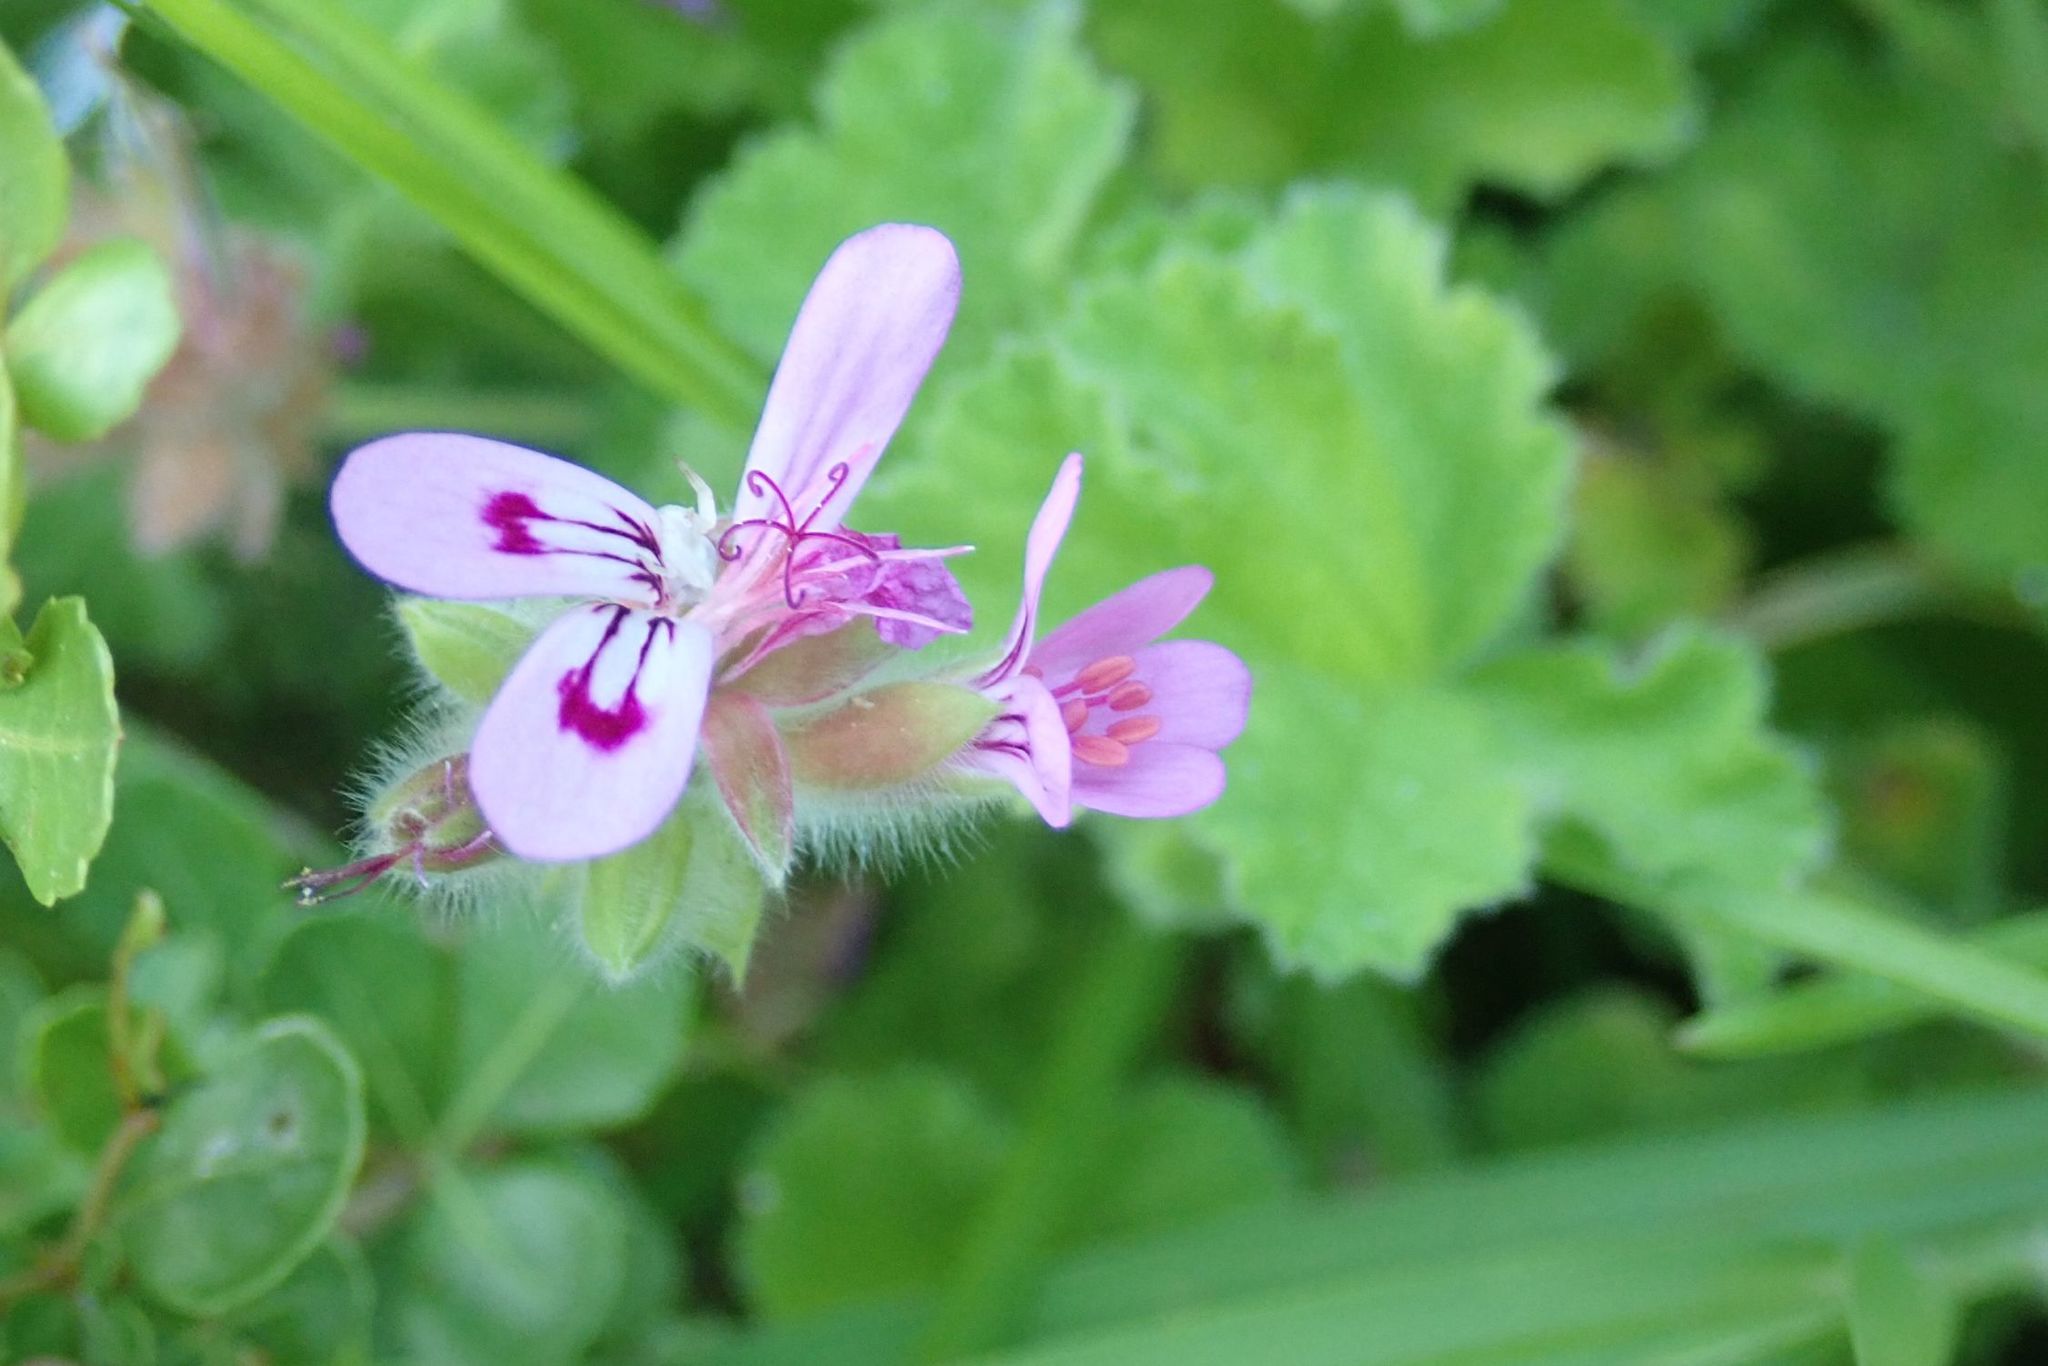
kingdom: Plantae
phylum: Tracheophyta
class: Magnoliopsida
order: Geraniales
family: Geraniaceae
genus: Pelargonium
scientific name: Pelargonium capitatum
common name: Rose scented geranium
